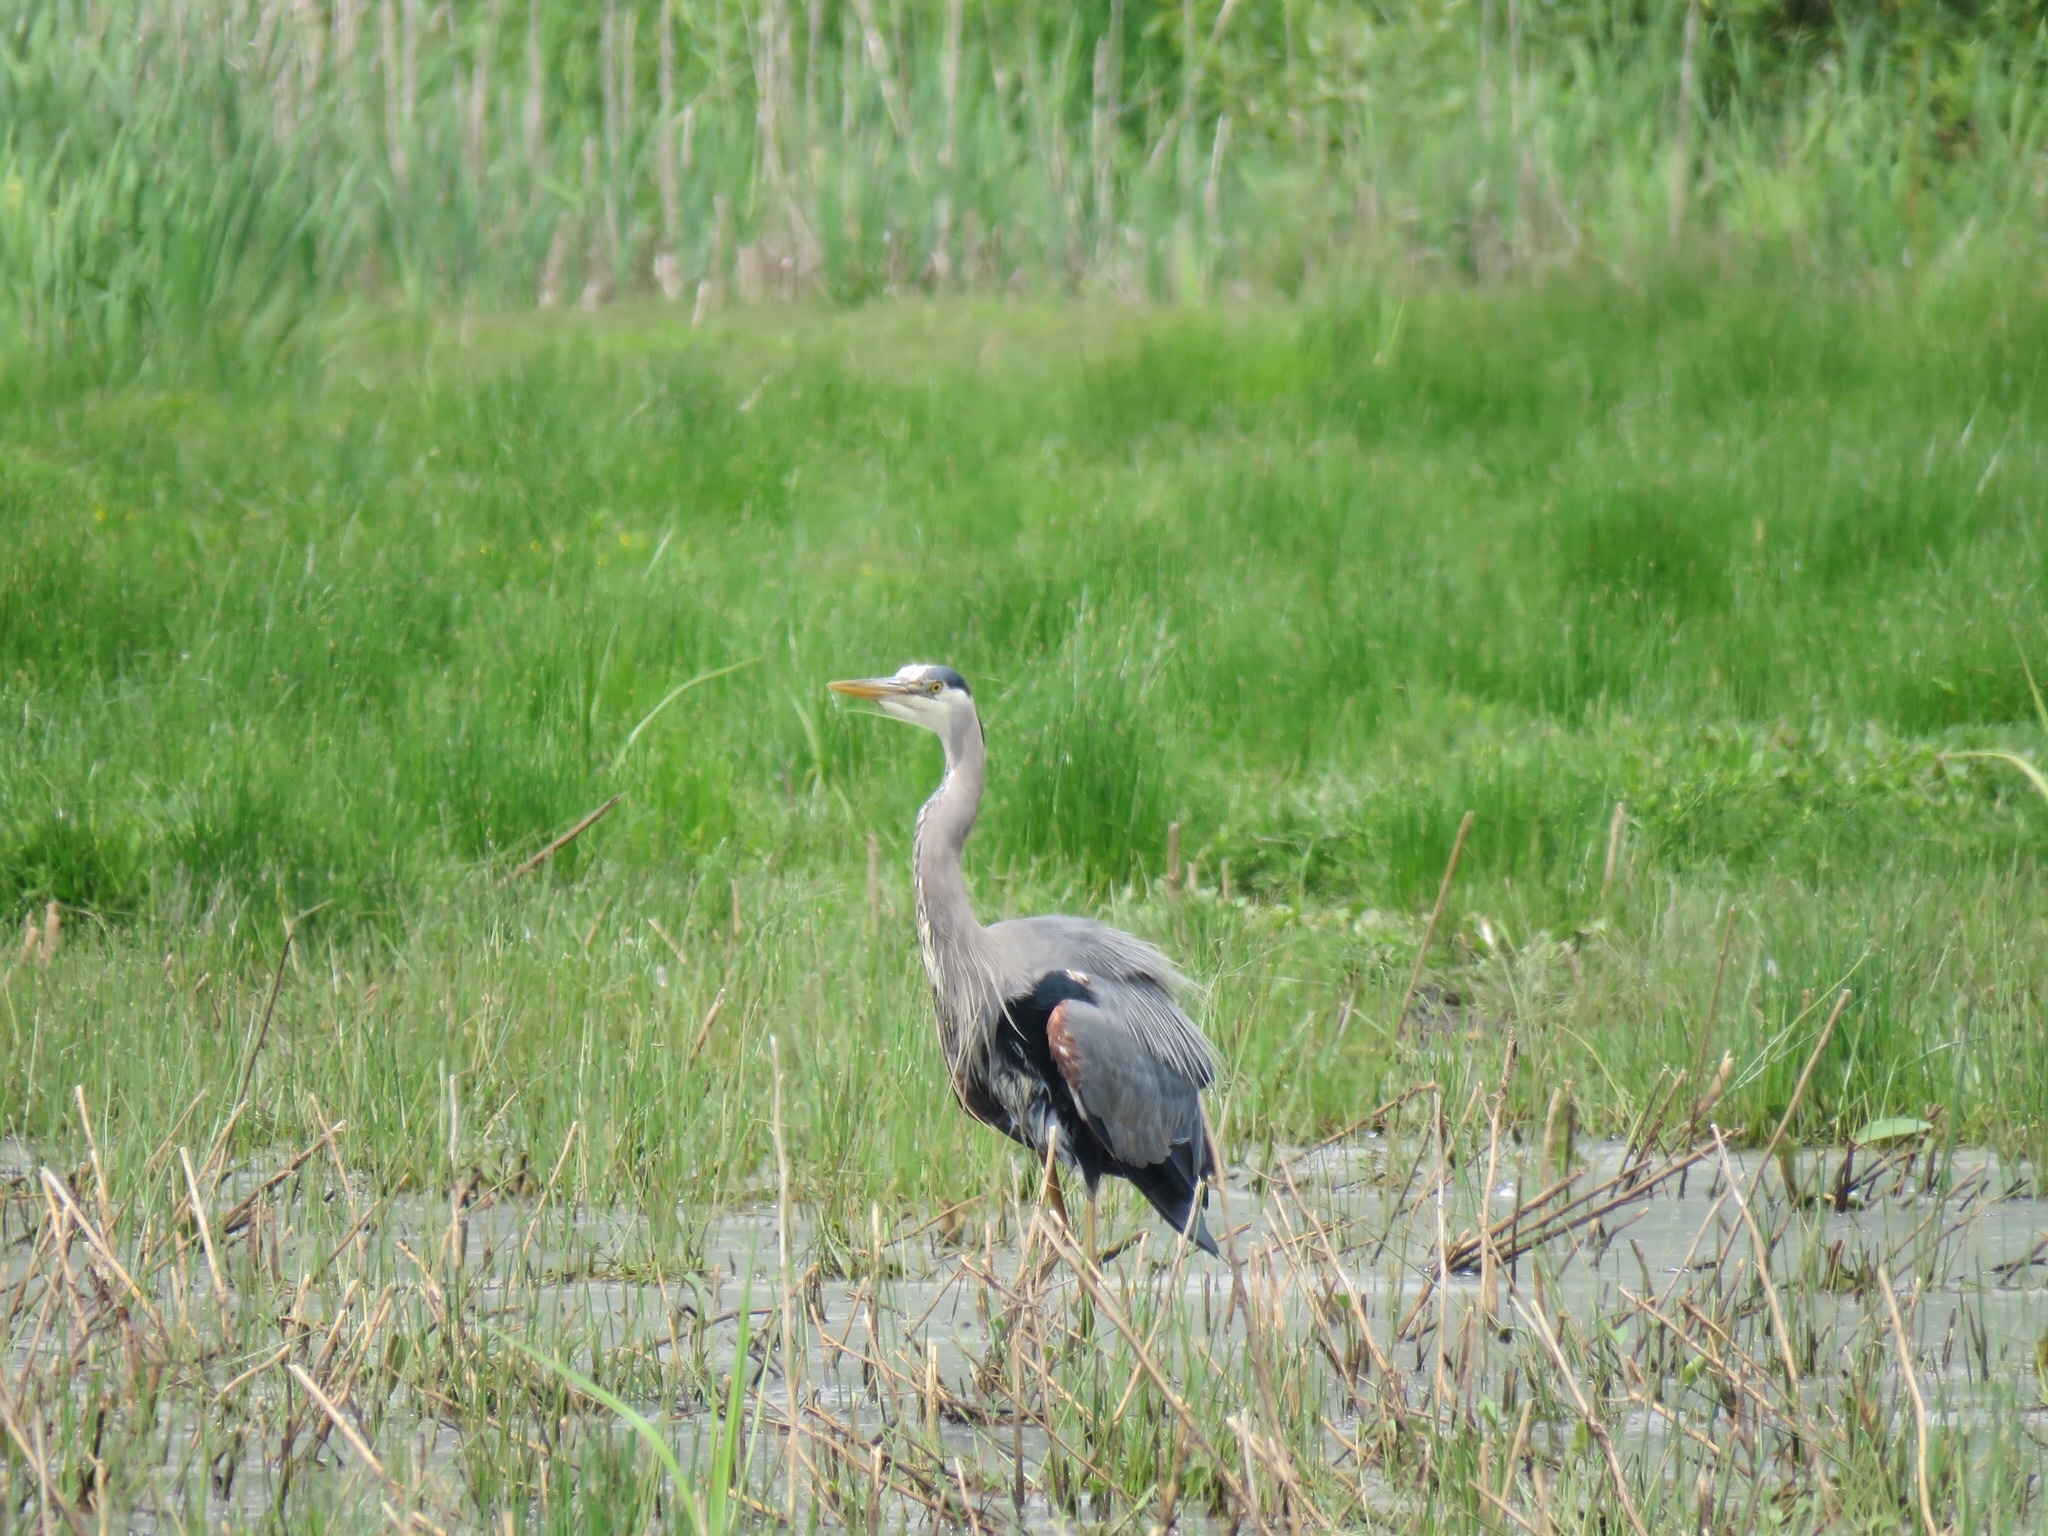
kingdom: Animalia
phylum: Chordata
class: Aves
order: Pelecaniformes
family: Ardeidae
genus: Ardea
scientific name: Ardea herodias
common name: Great blue heron
